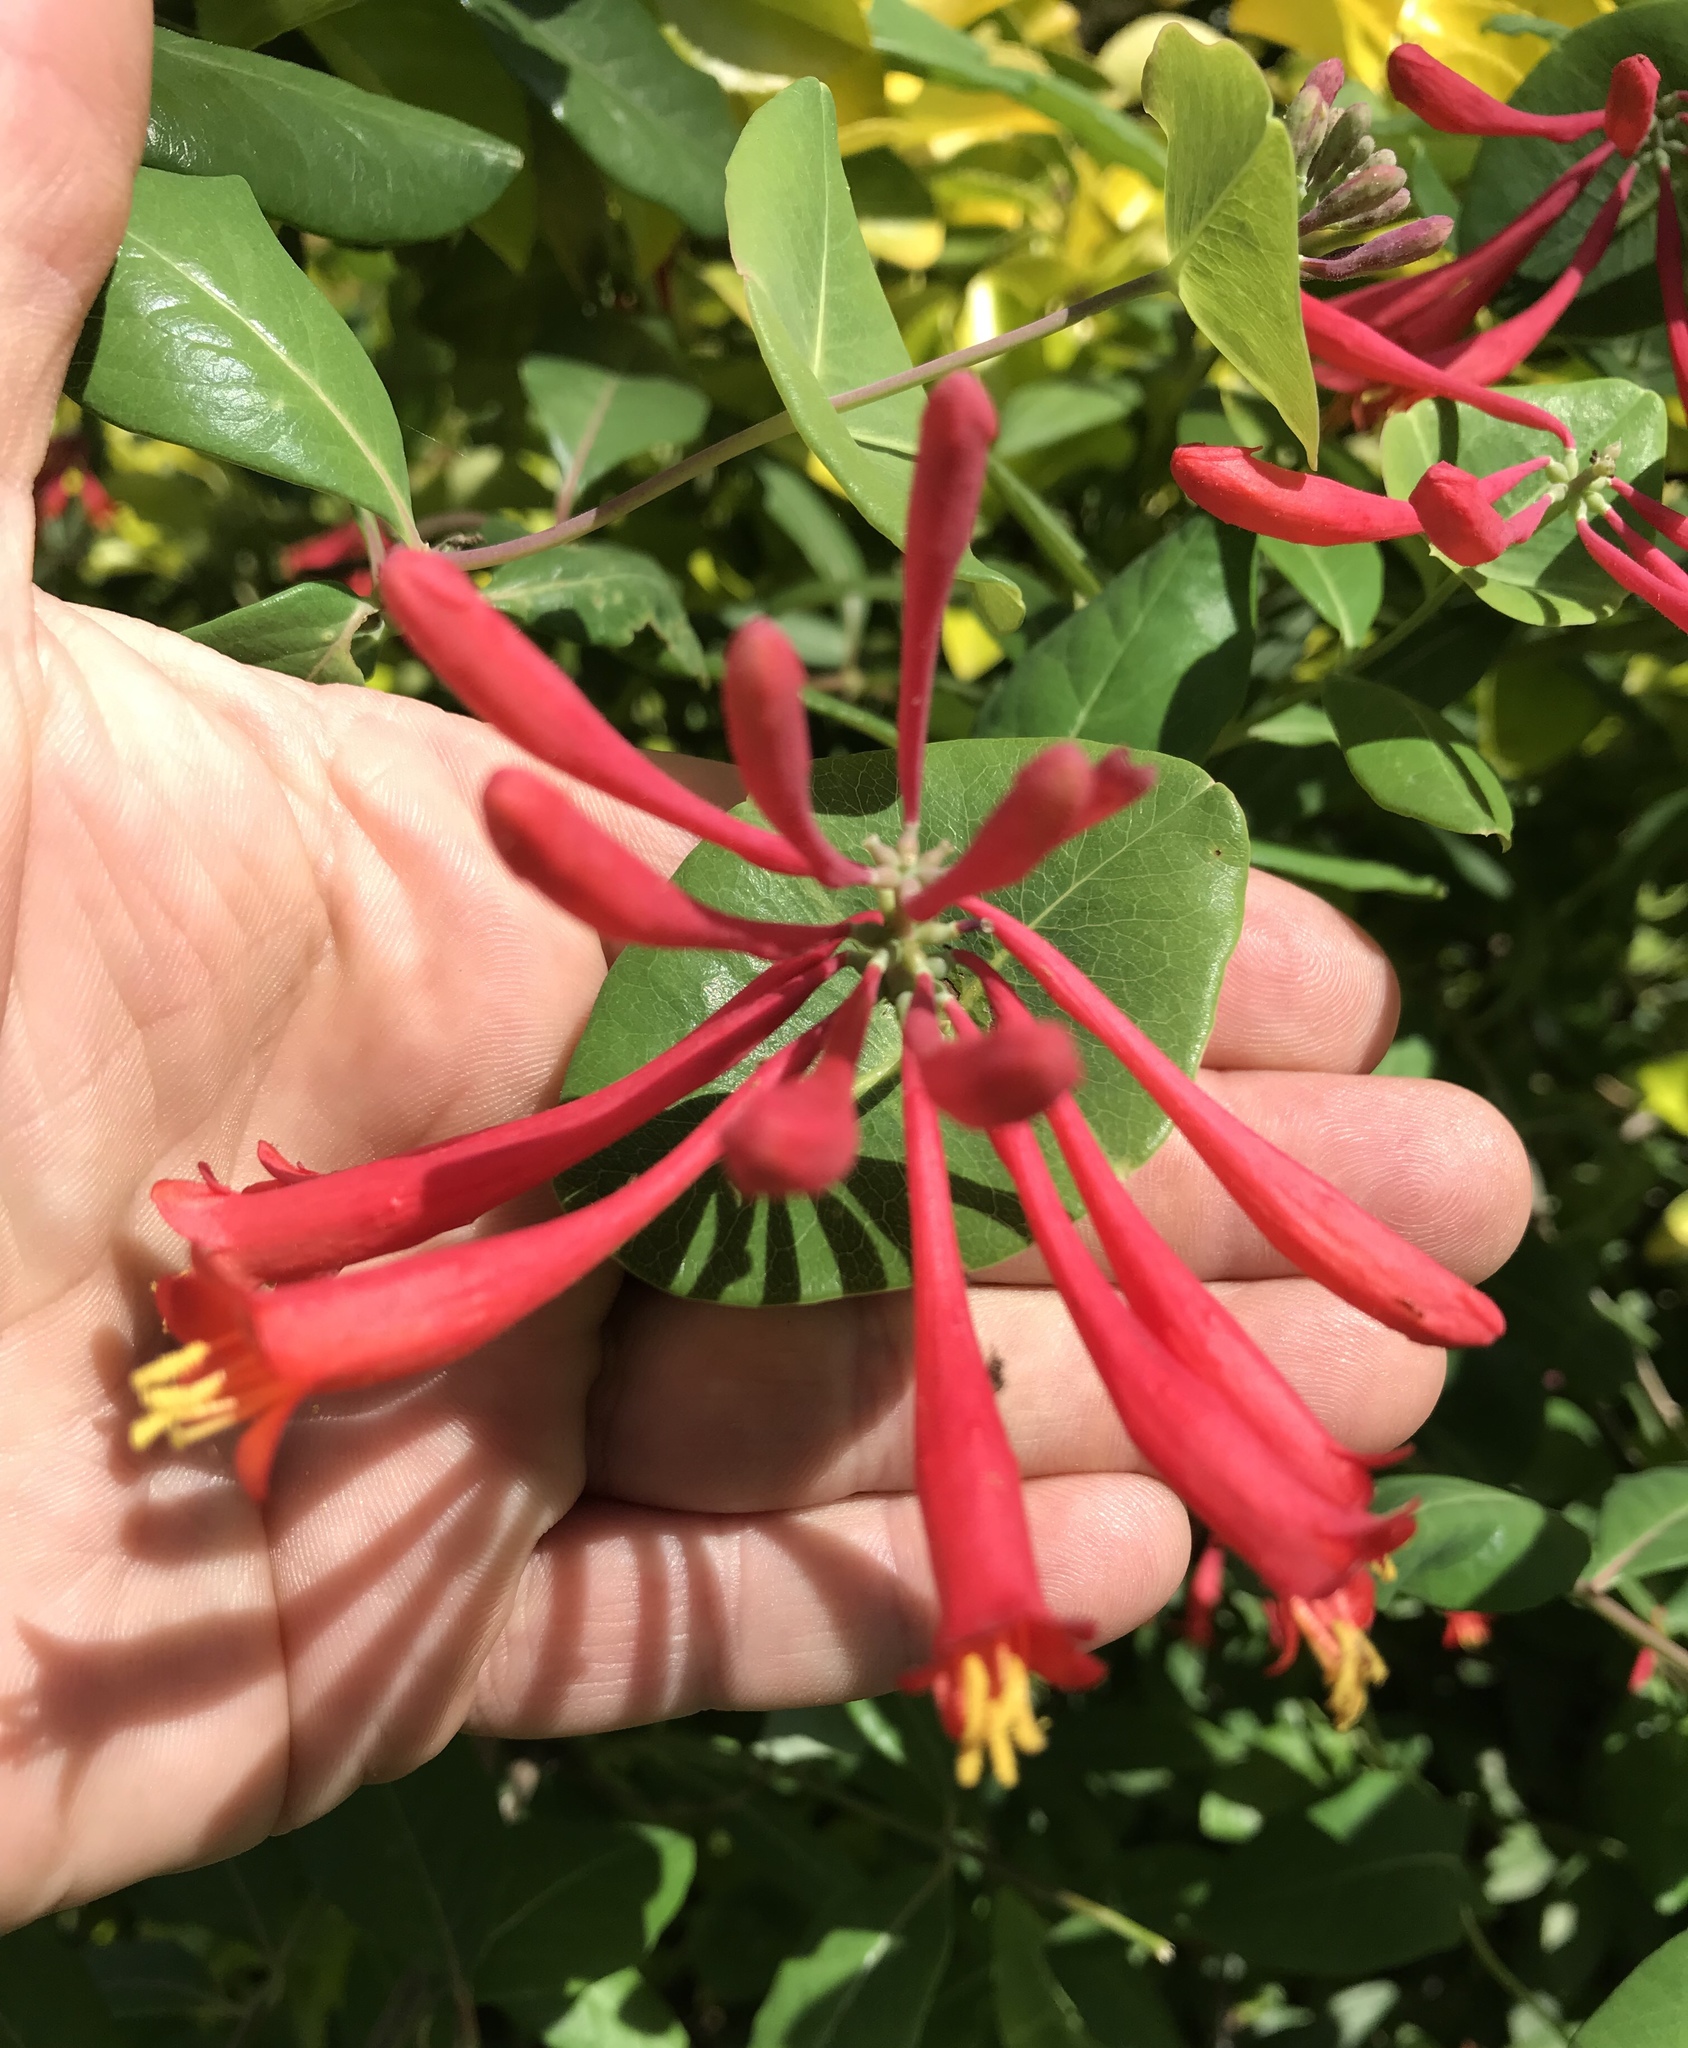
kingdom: Plantae
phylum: Tracheophyta
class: Magnoliopsida
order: Dipsacales
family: Caprifoliaceae
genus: Lonicera
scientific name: Lonicera sempervirens
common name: Coral honeysuckle
